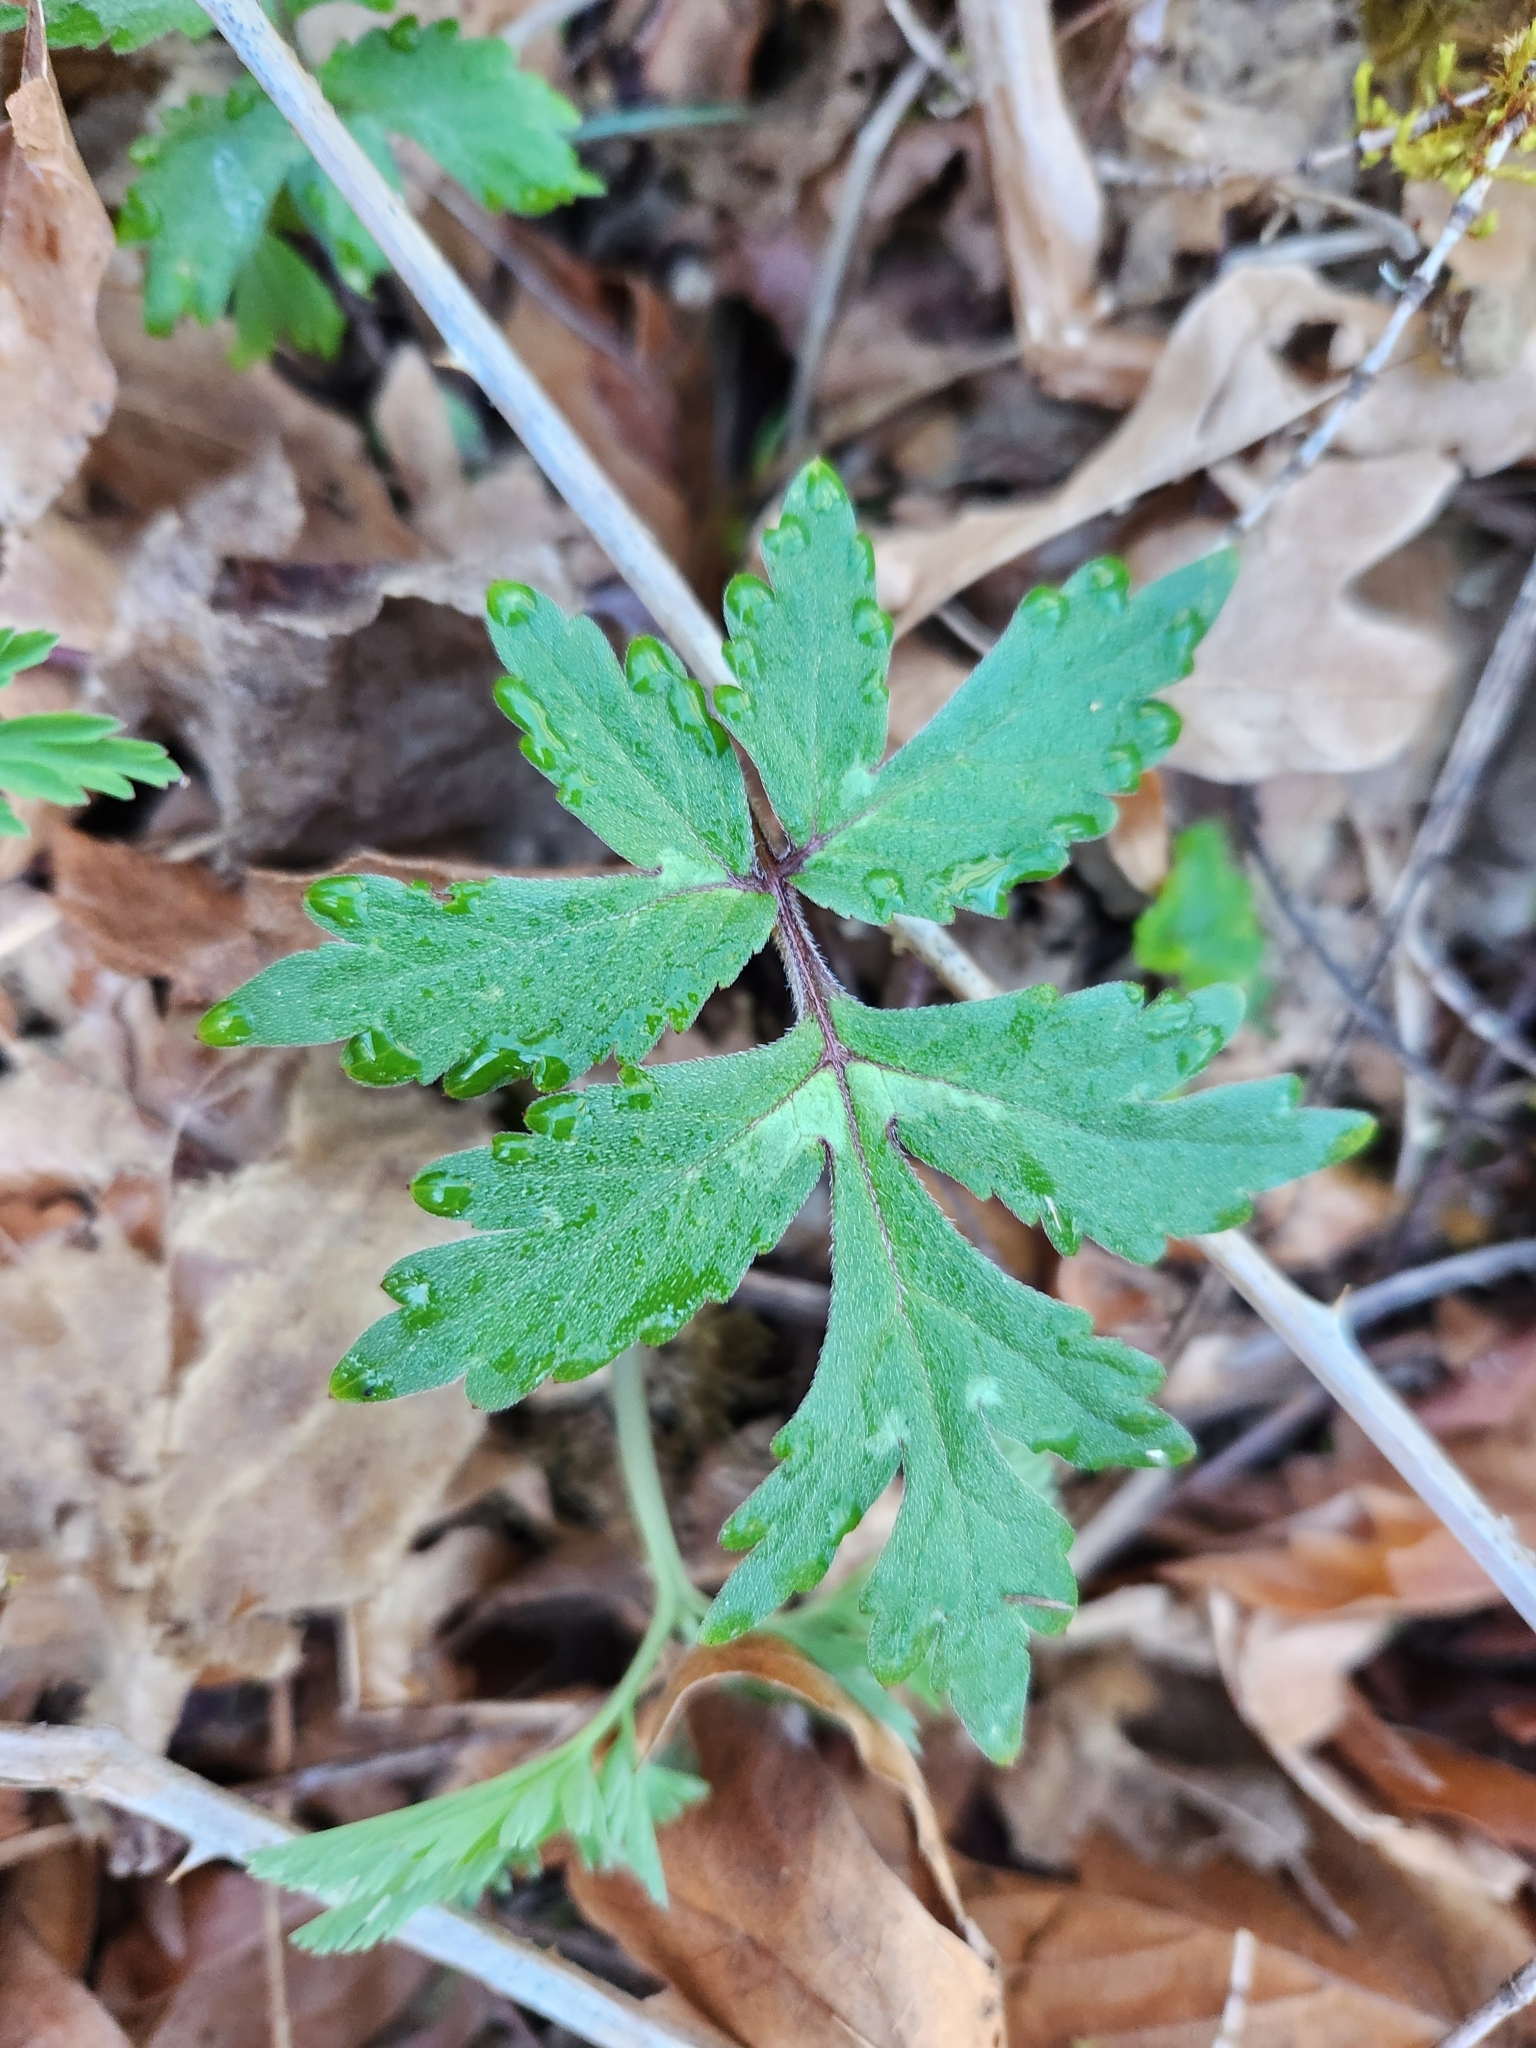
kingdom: Plantae
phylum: Tracheophyta
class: Magnoliopsida
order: Boraginales
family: Hydrophyllaceae
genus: Hydrophyllum
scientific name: Hydrophyllum tenuipes
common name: Pacific waterleaf
